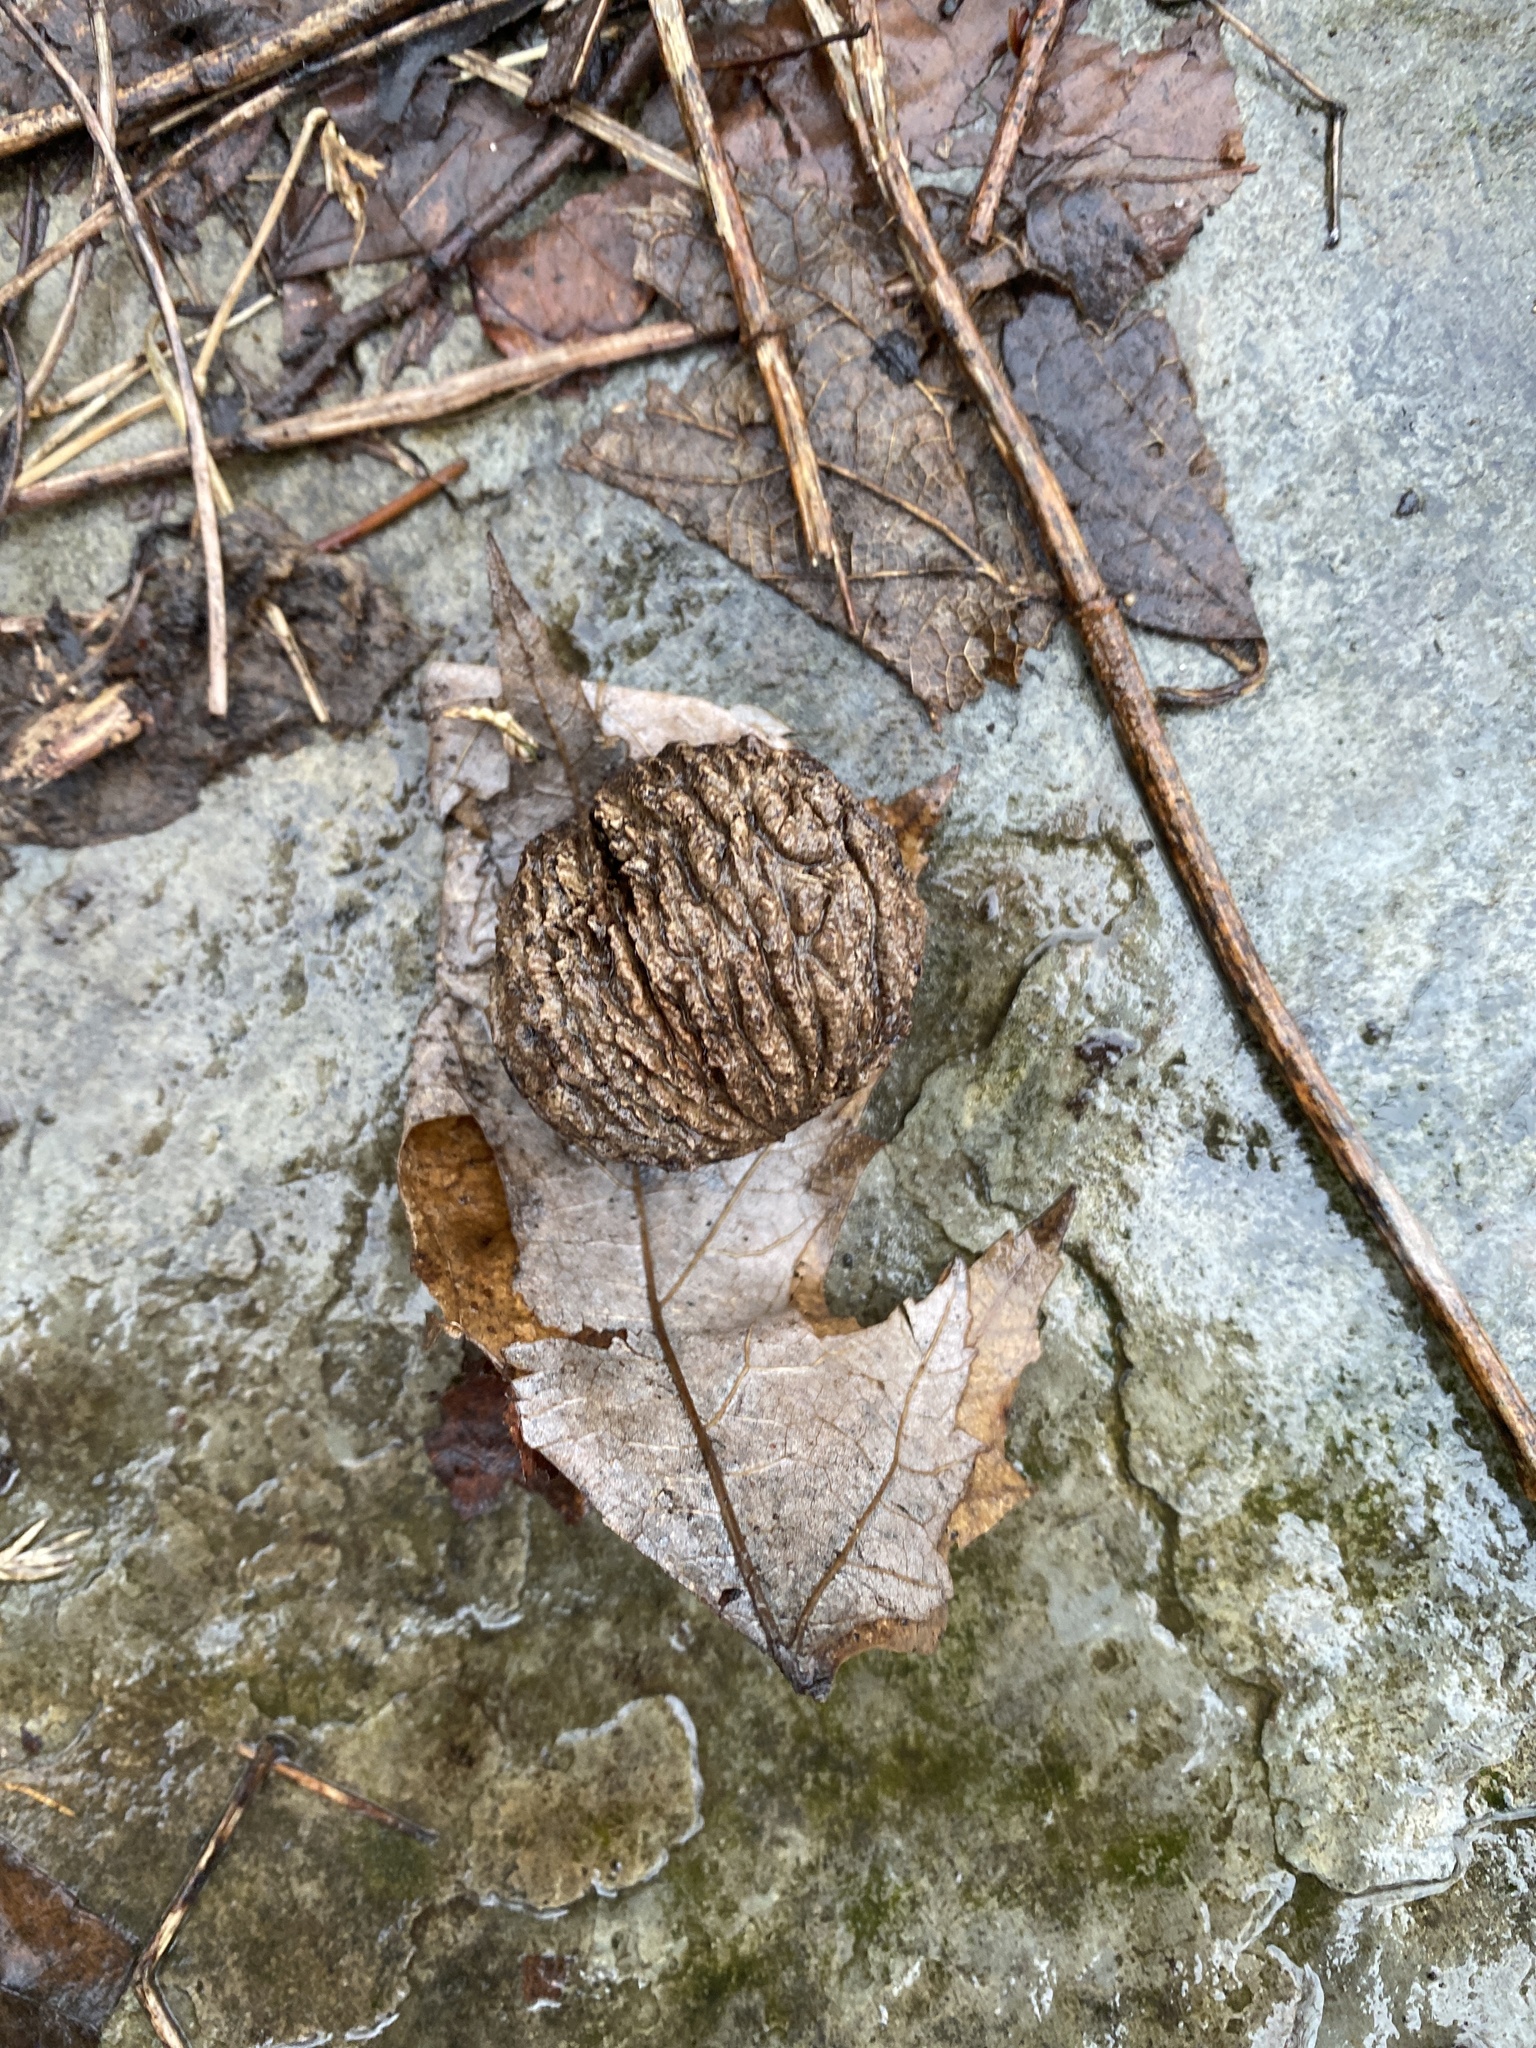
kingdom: Plantae
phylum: Tracheophyta
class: Magnoliopsida
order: Fagales
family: Juglandaceae
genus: Juglans
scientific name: Juglans nigra
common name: Black walnut
